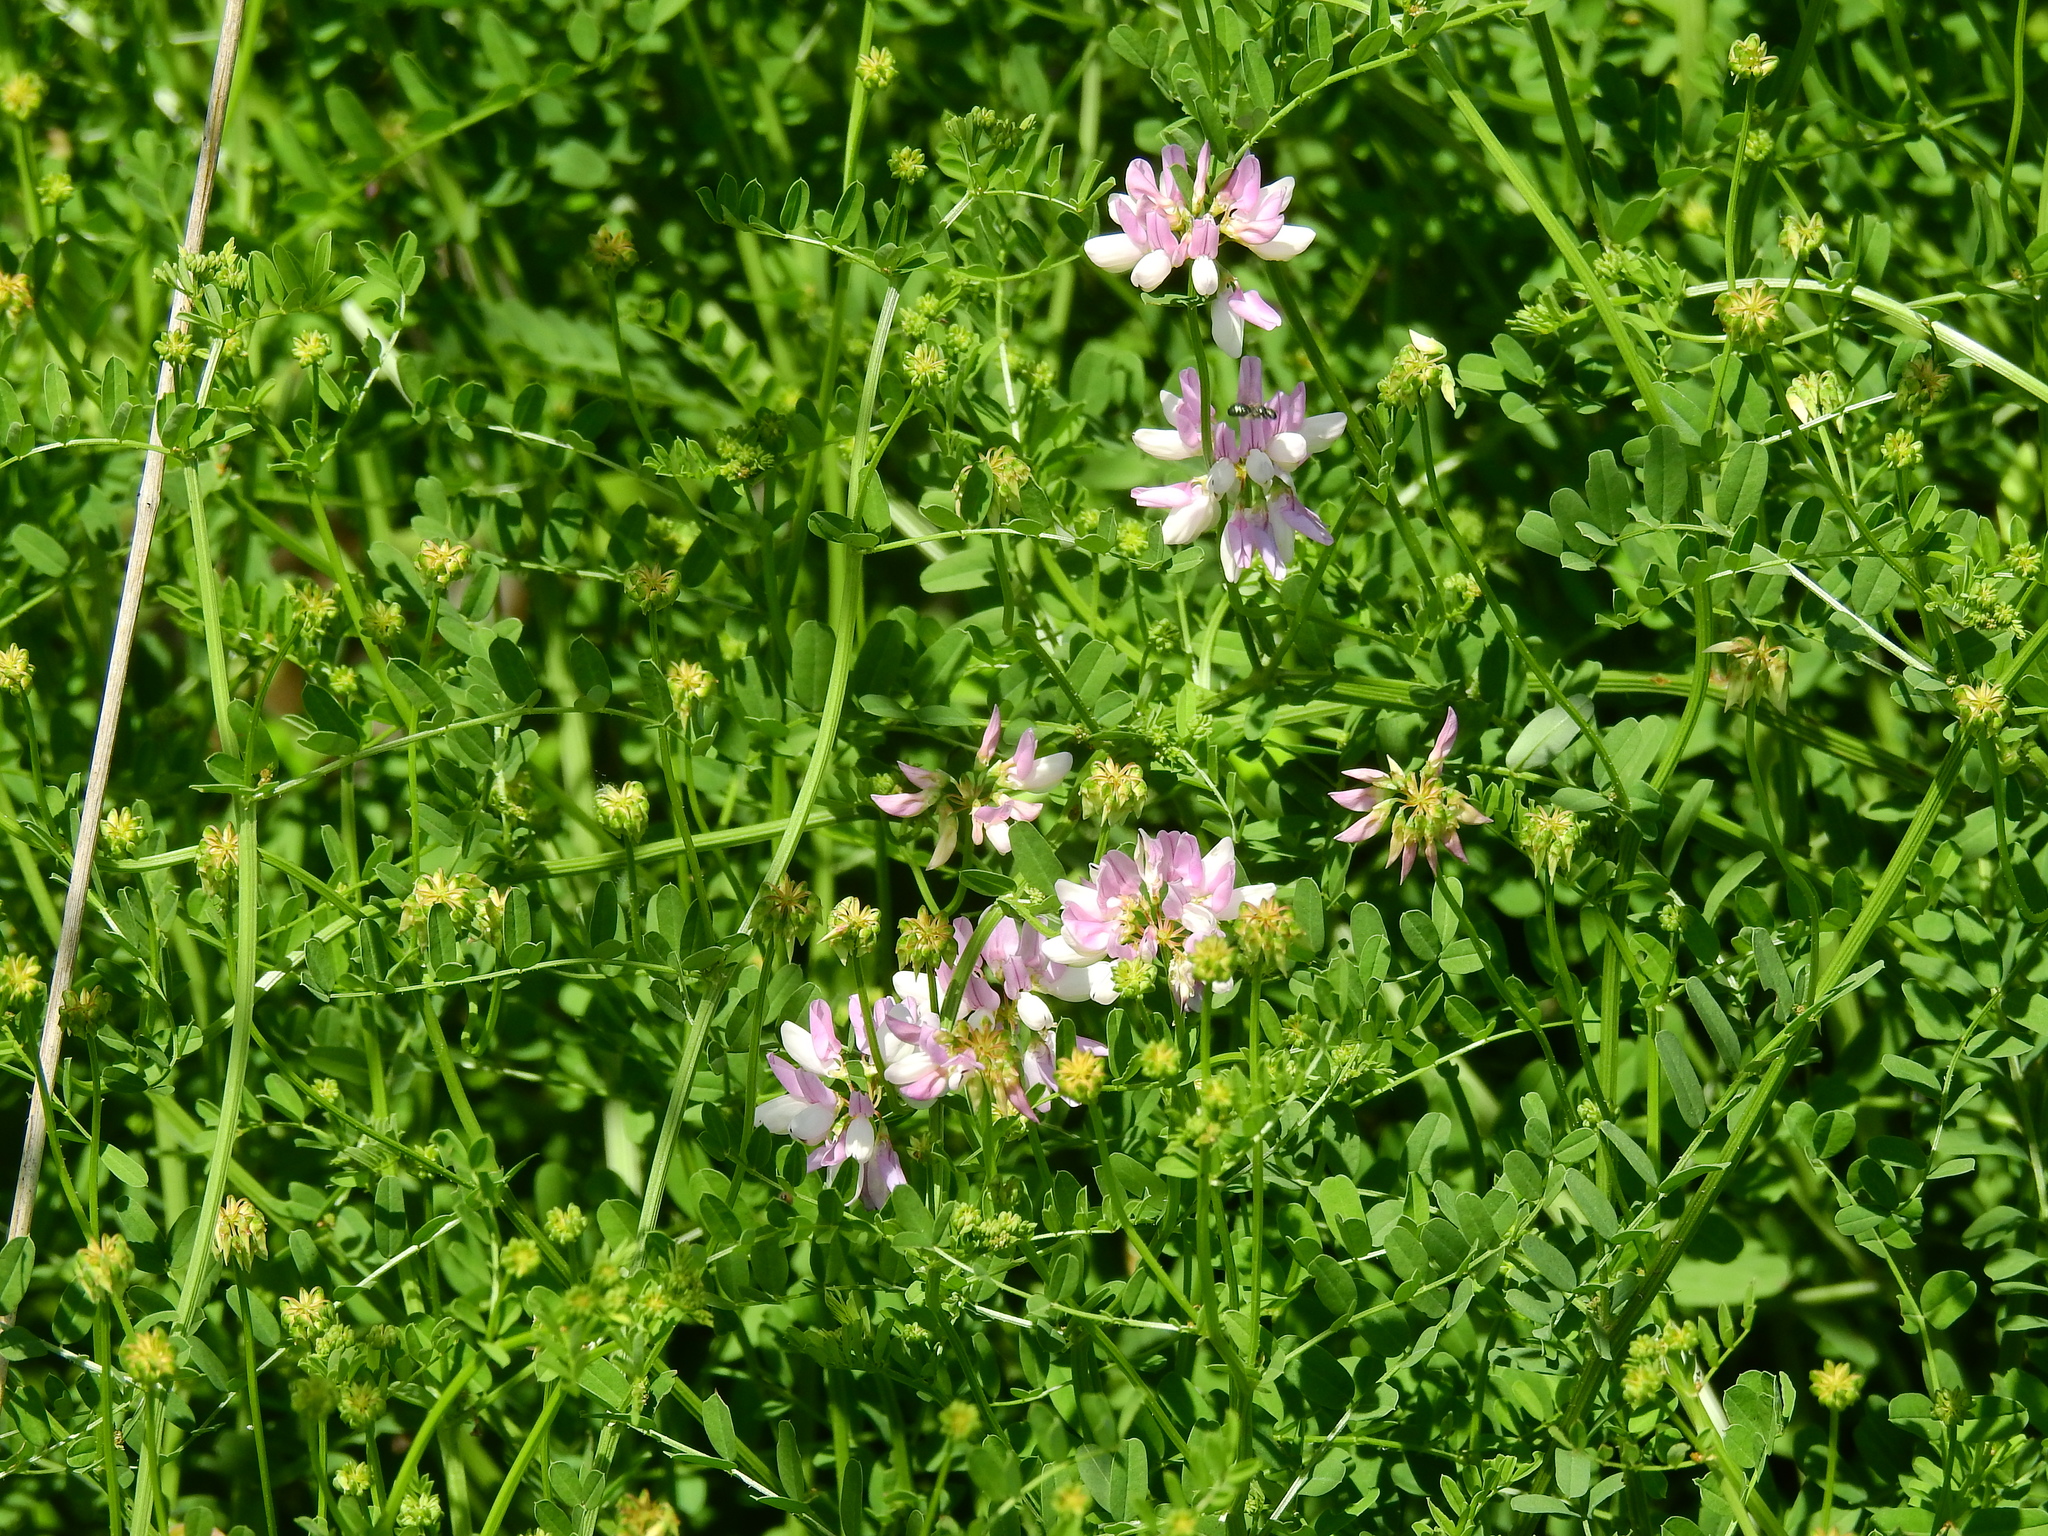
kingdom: Plantae
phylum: Tracheophyta
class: Magnoliopsida
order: Fabales
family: Fabaceae
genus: Coronilla
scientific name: Coronilla varia
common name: Crownvetch
